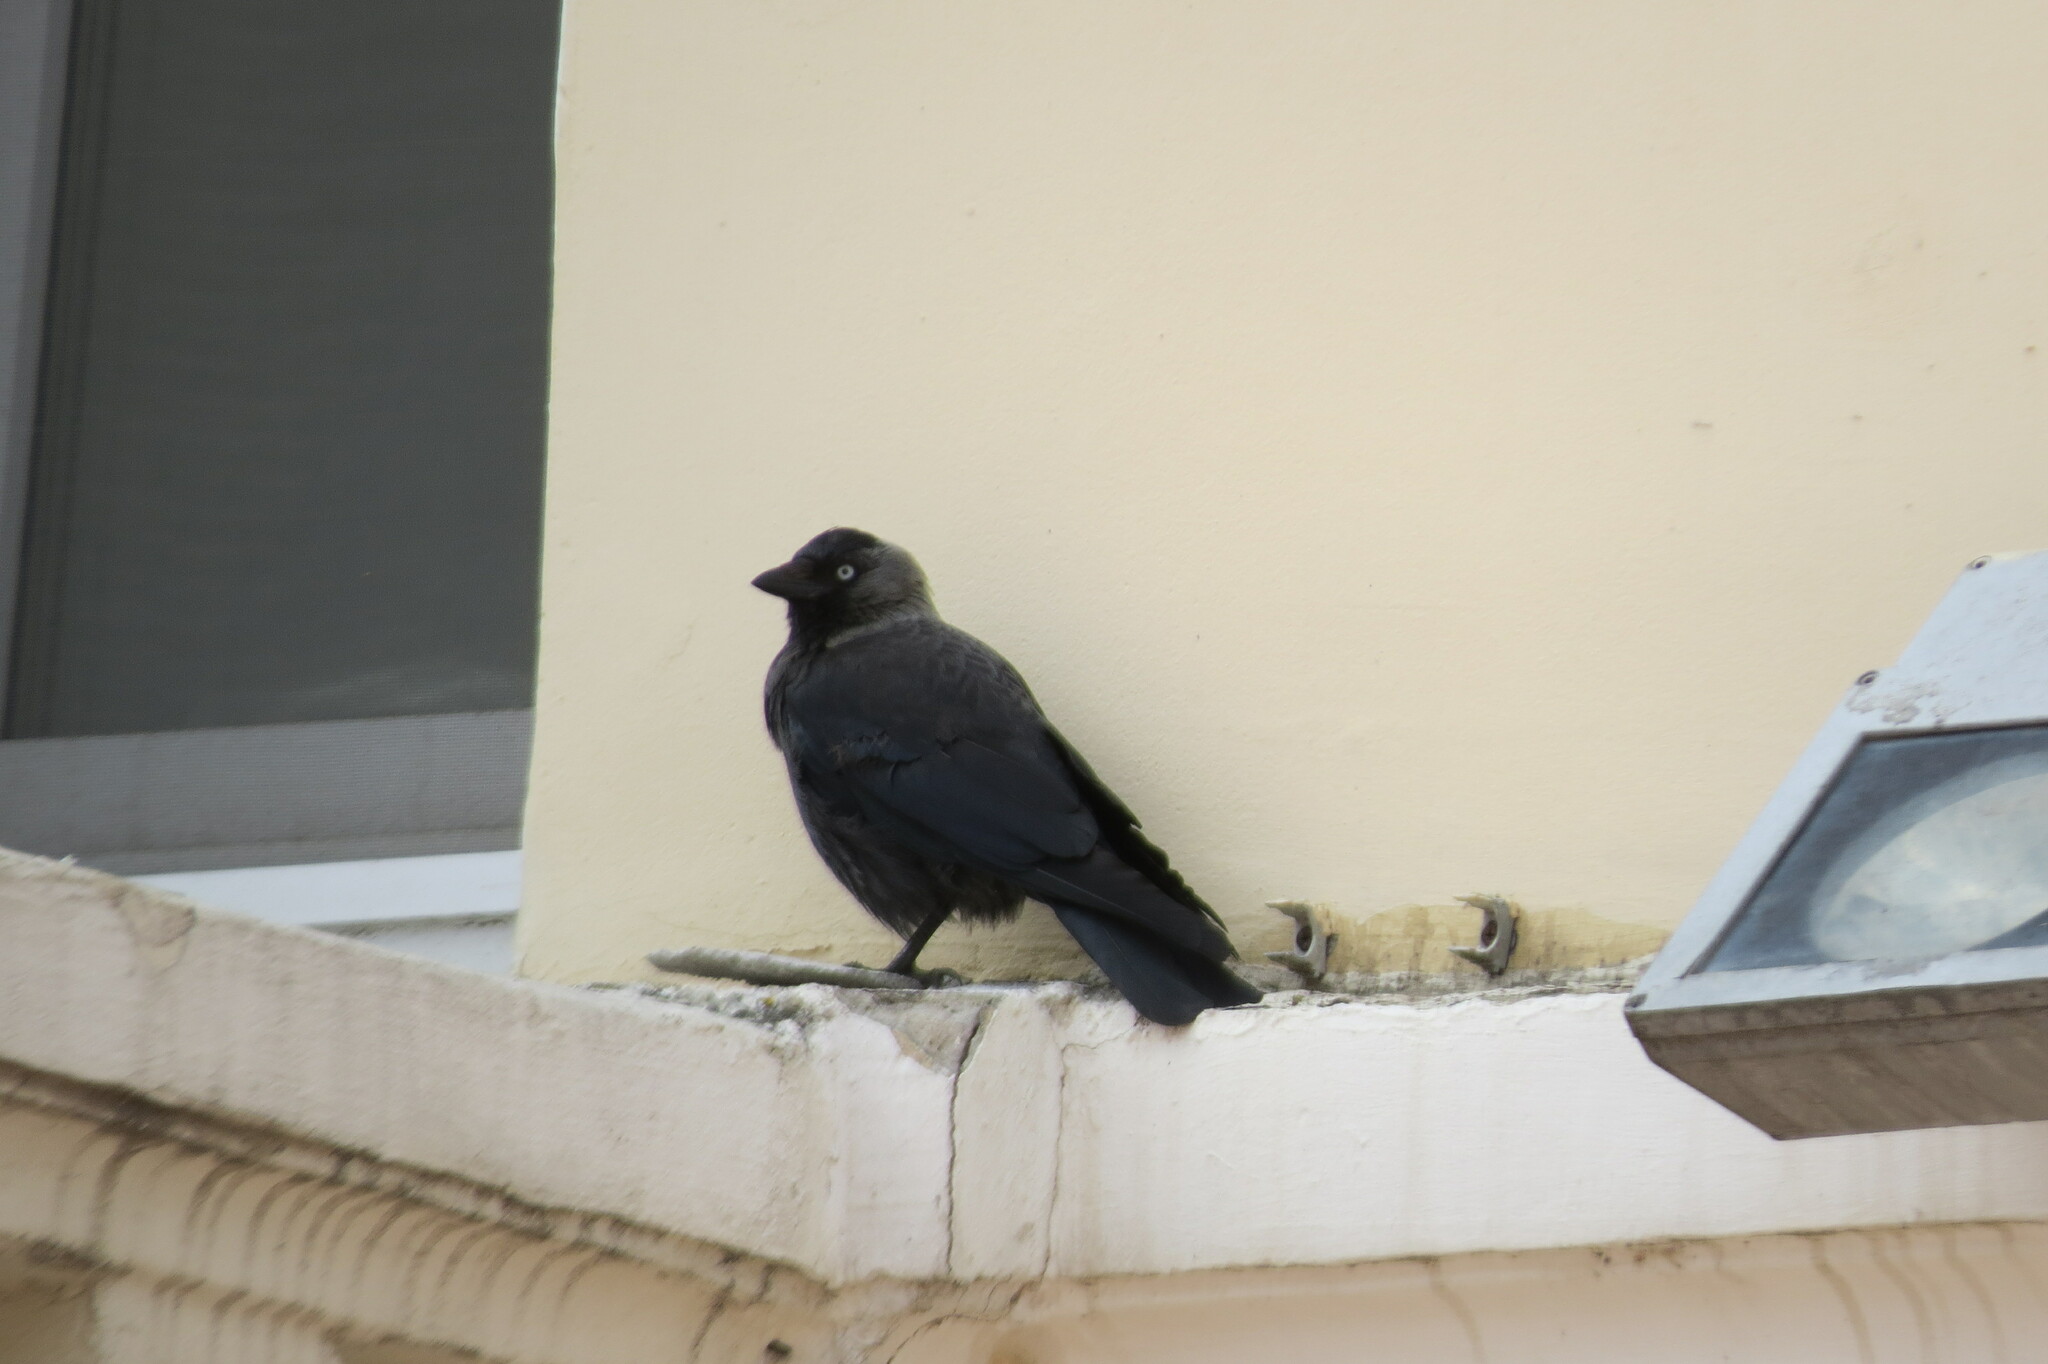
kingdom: Animalia
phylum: Chordata
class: Aves
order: Passeriformes
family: Corvidae
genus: Coloeus
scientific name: Coloeus monedula
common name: Western jackdaw
